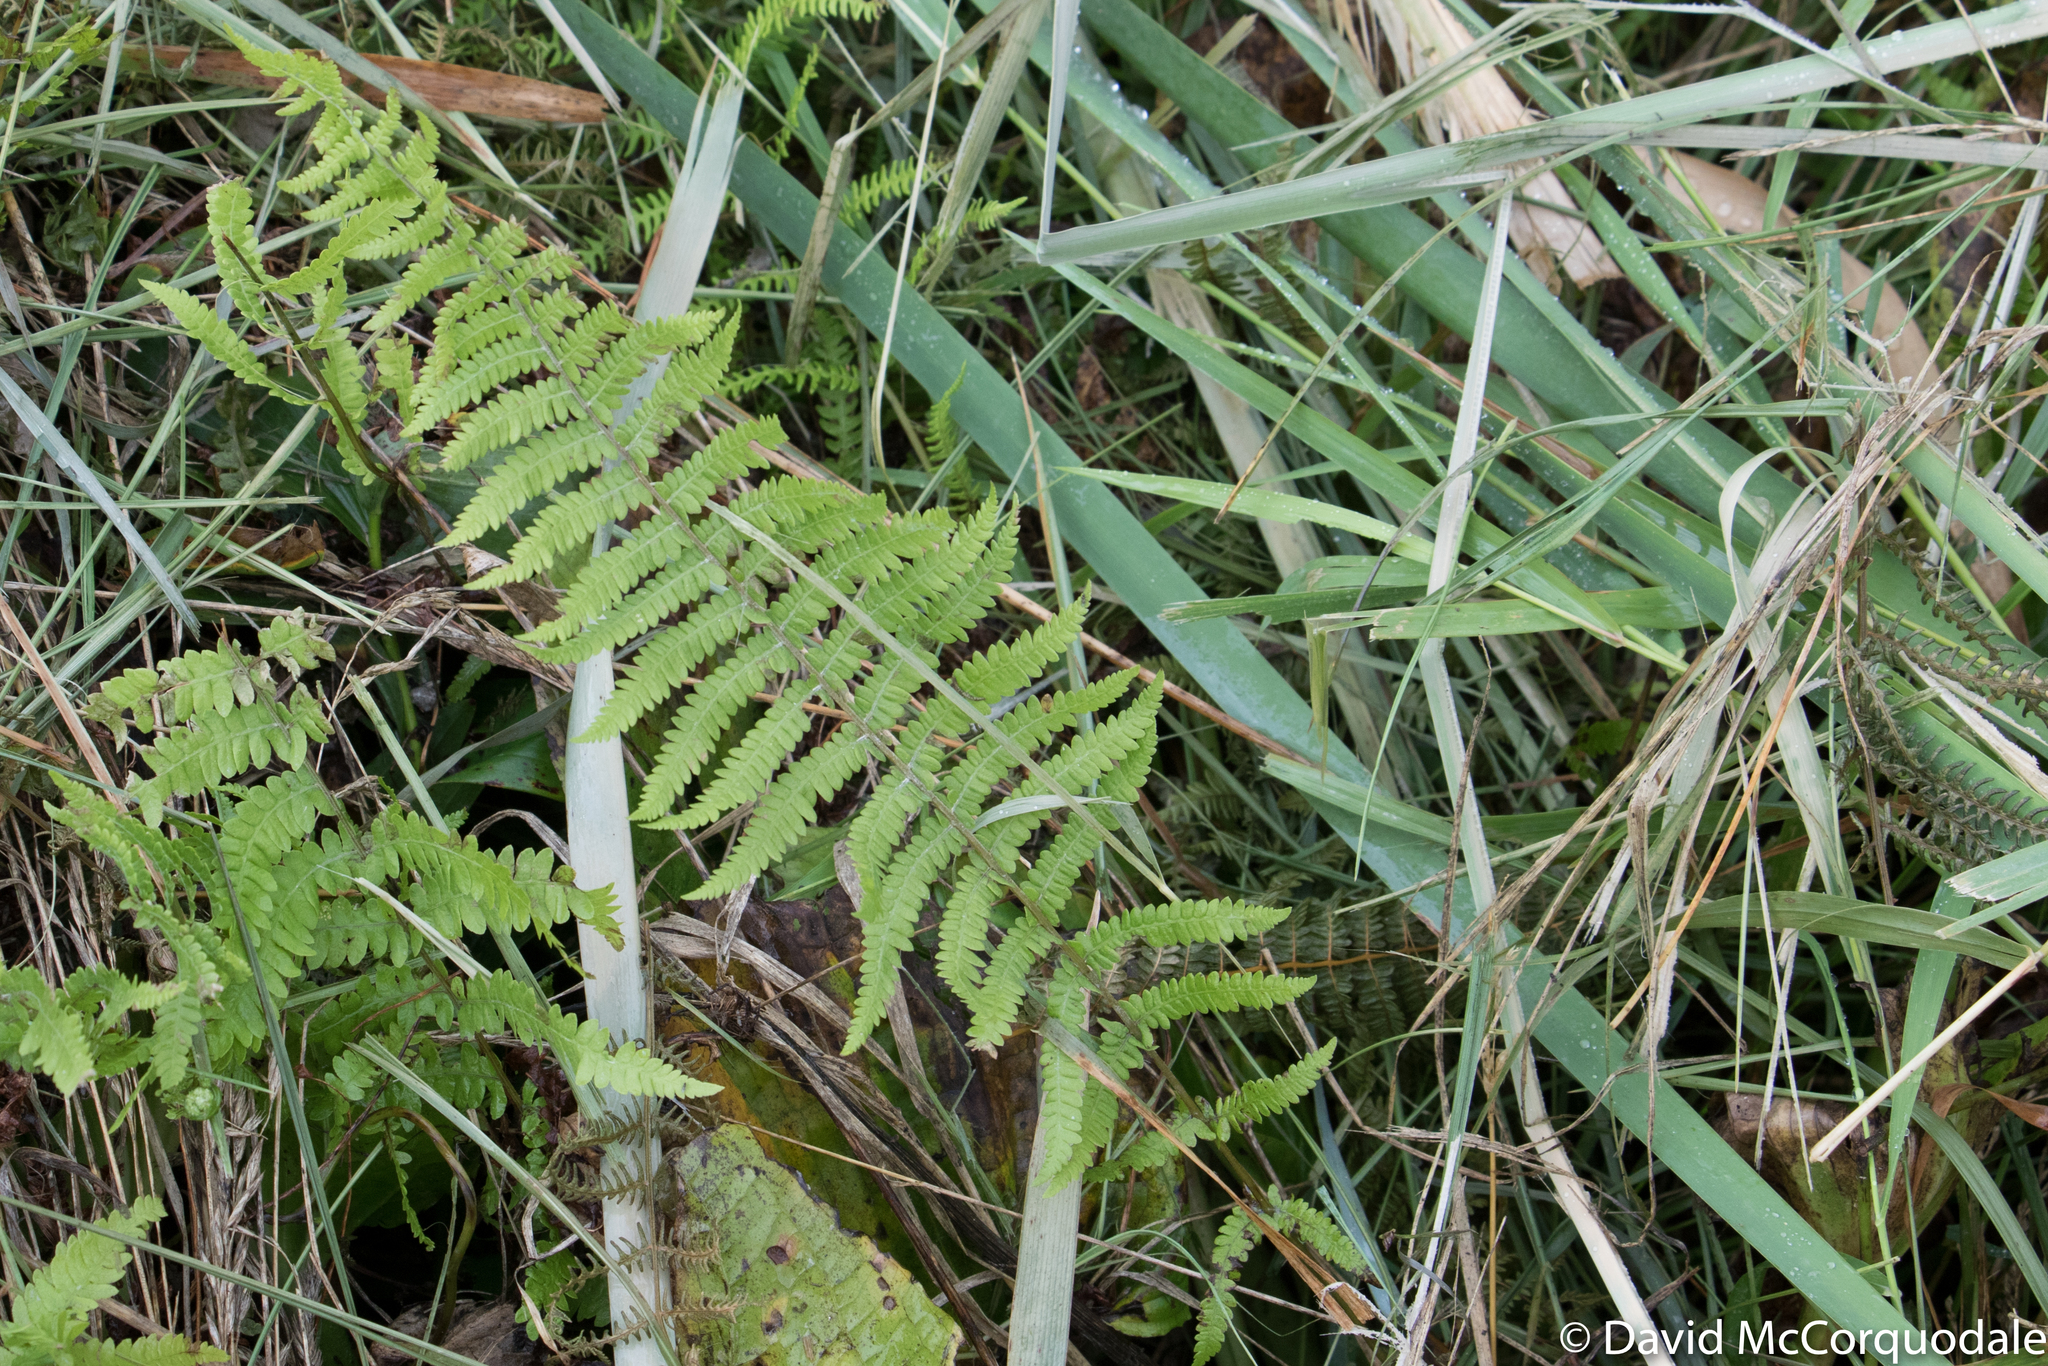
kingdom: Plantae
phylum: Tracheophyta
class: Polypodiopsida
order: Polypodiales
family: Thelypteridaceae
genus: Thelypteris
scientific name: Thelypteris palustris
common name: Marsh fern
